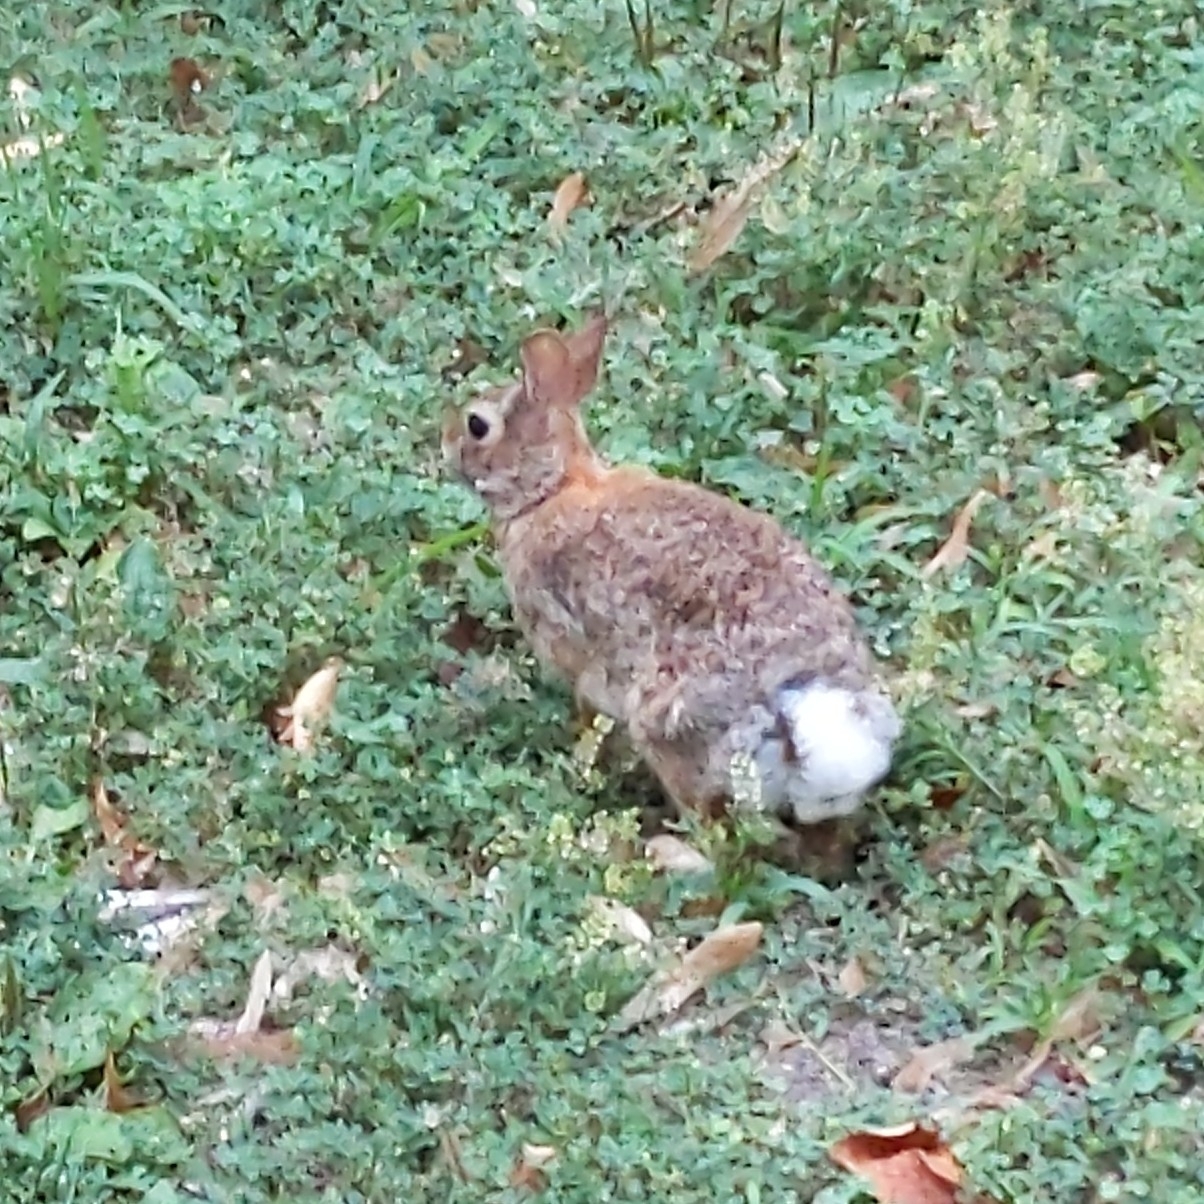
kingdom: Animalia
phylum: Chordata
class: Mammalia
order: Lagomorpha
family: Leporidae
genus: Sylvilagus
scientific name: Sylvilagus floridanus
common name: Eastern cottontail
